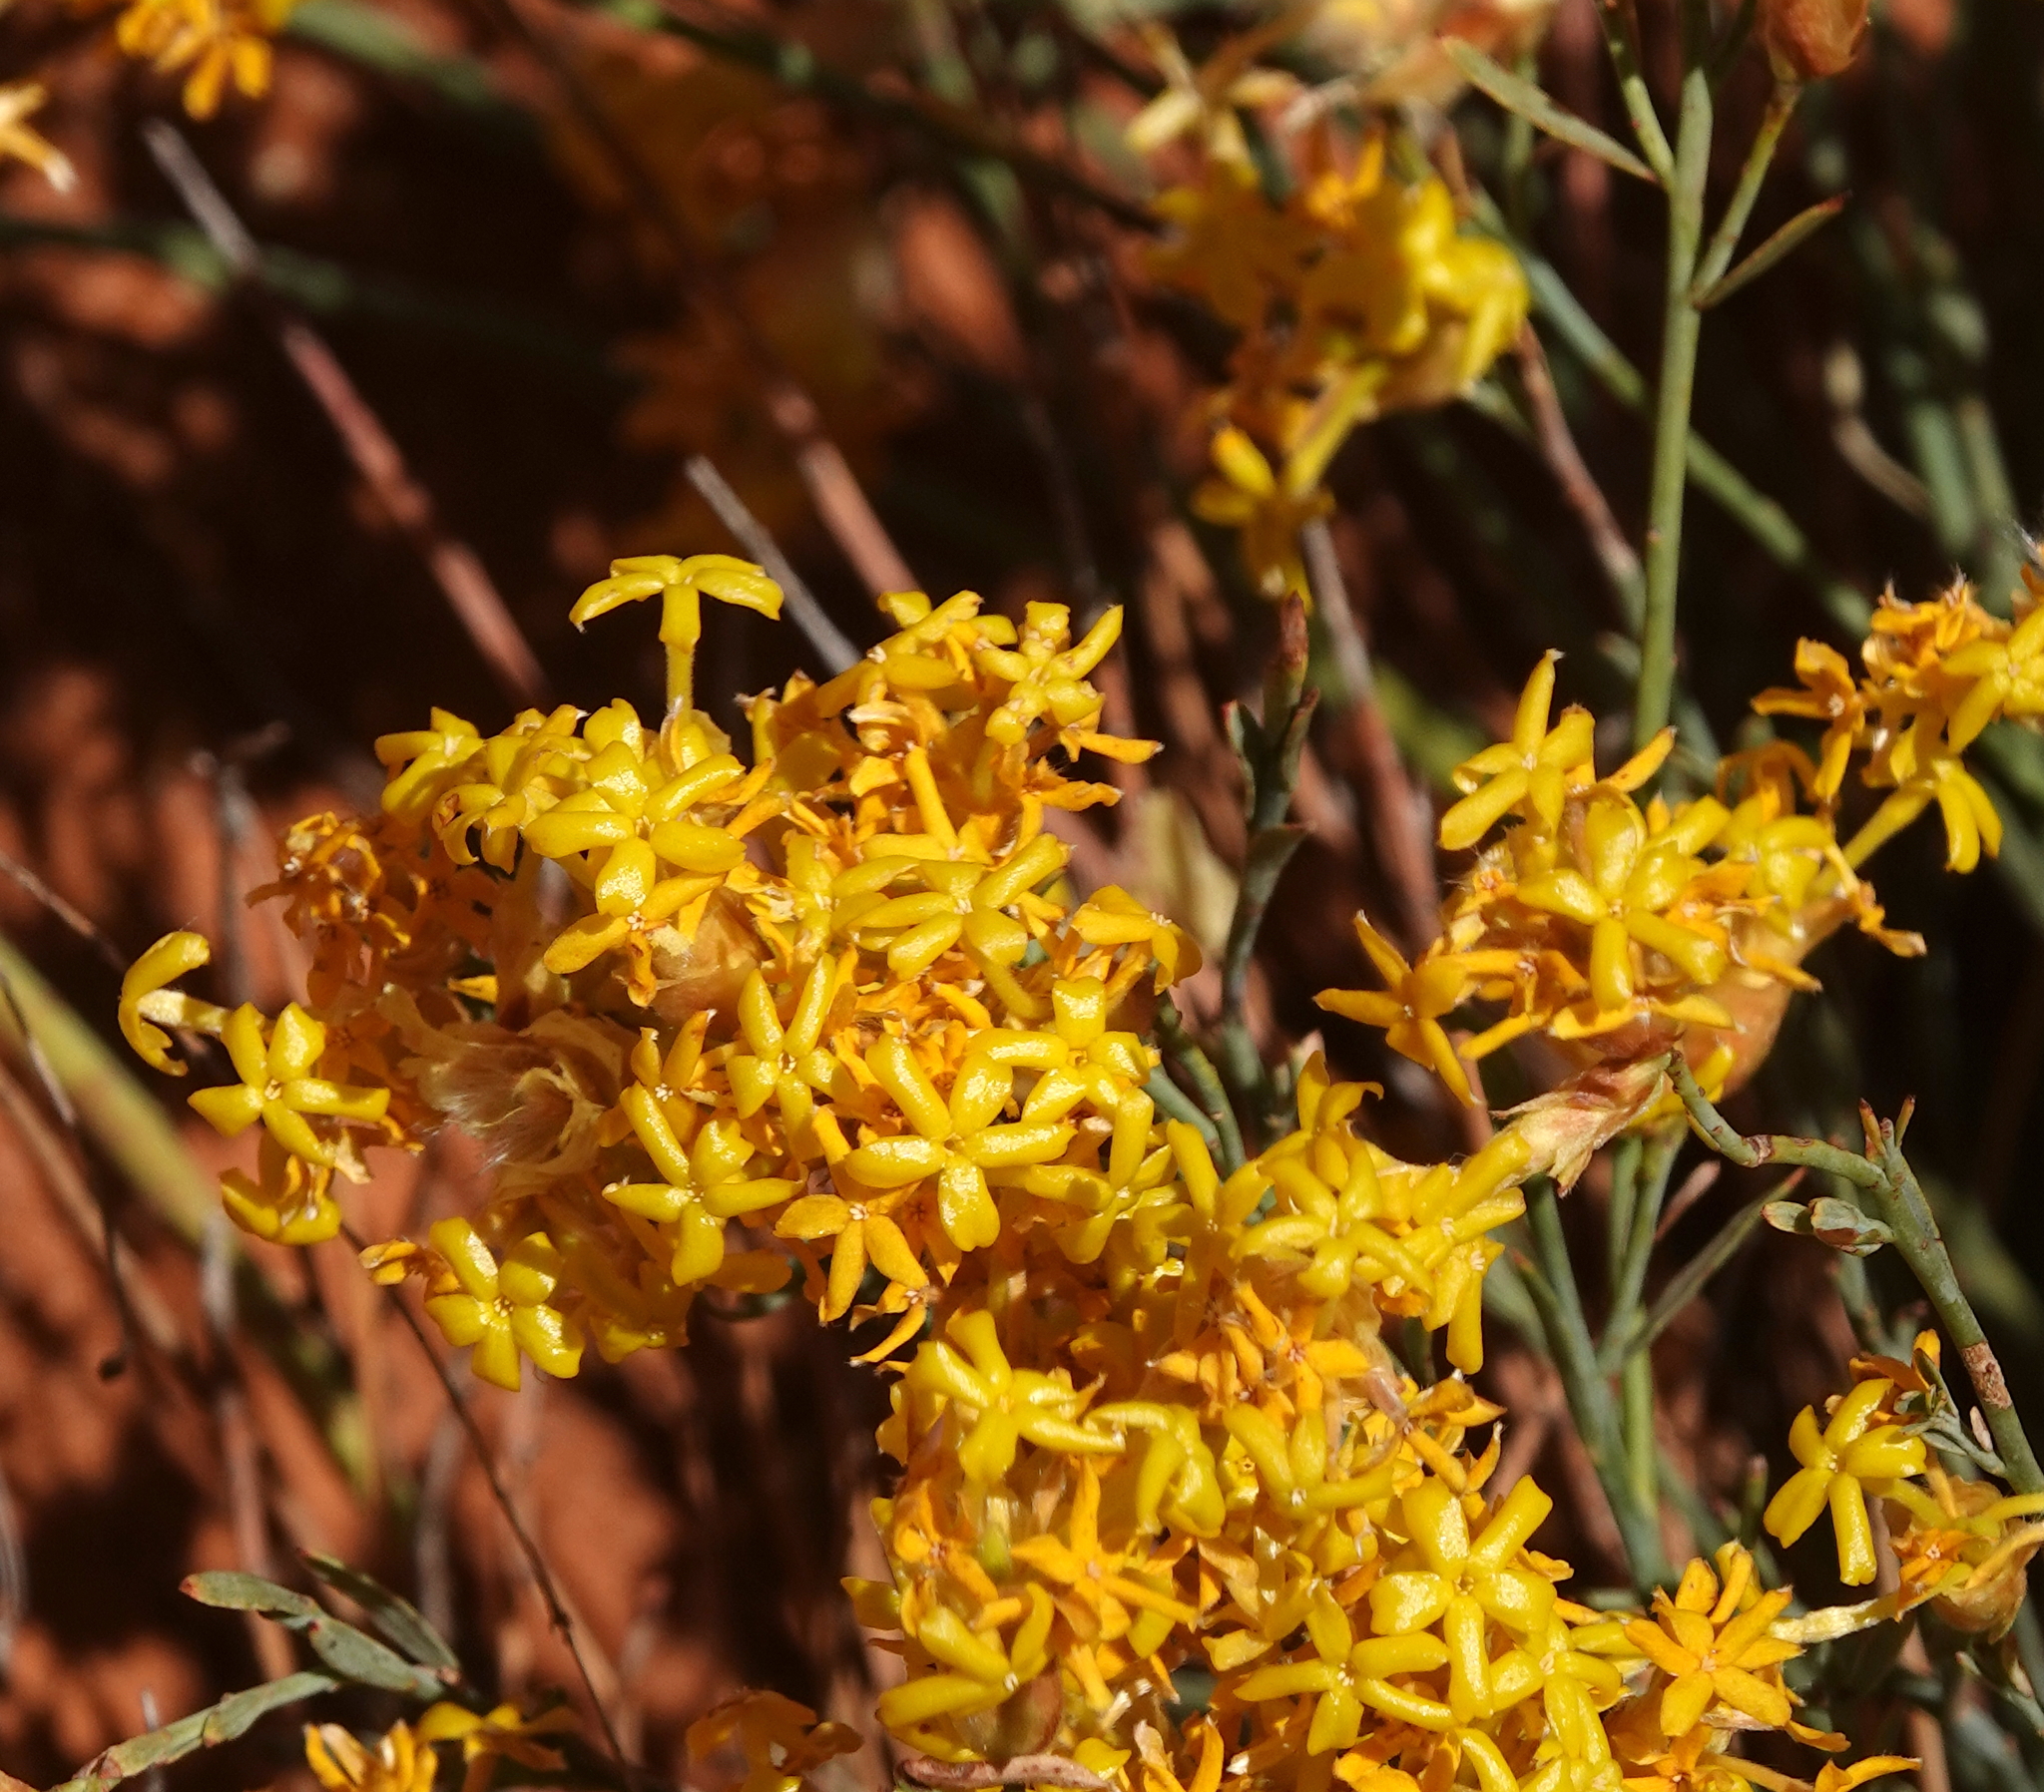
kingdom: Plantae
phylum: Tracheophyta
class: Magnoliopsida
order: Malvales
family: Thymelaeaceae
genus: Gnidia
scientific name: Gnidia polycephala
